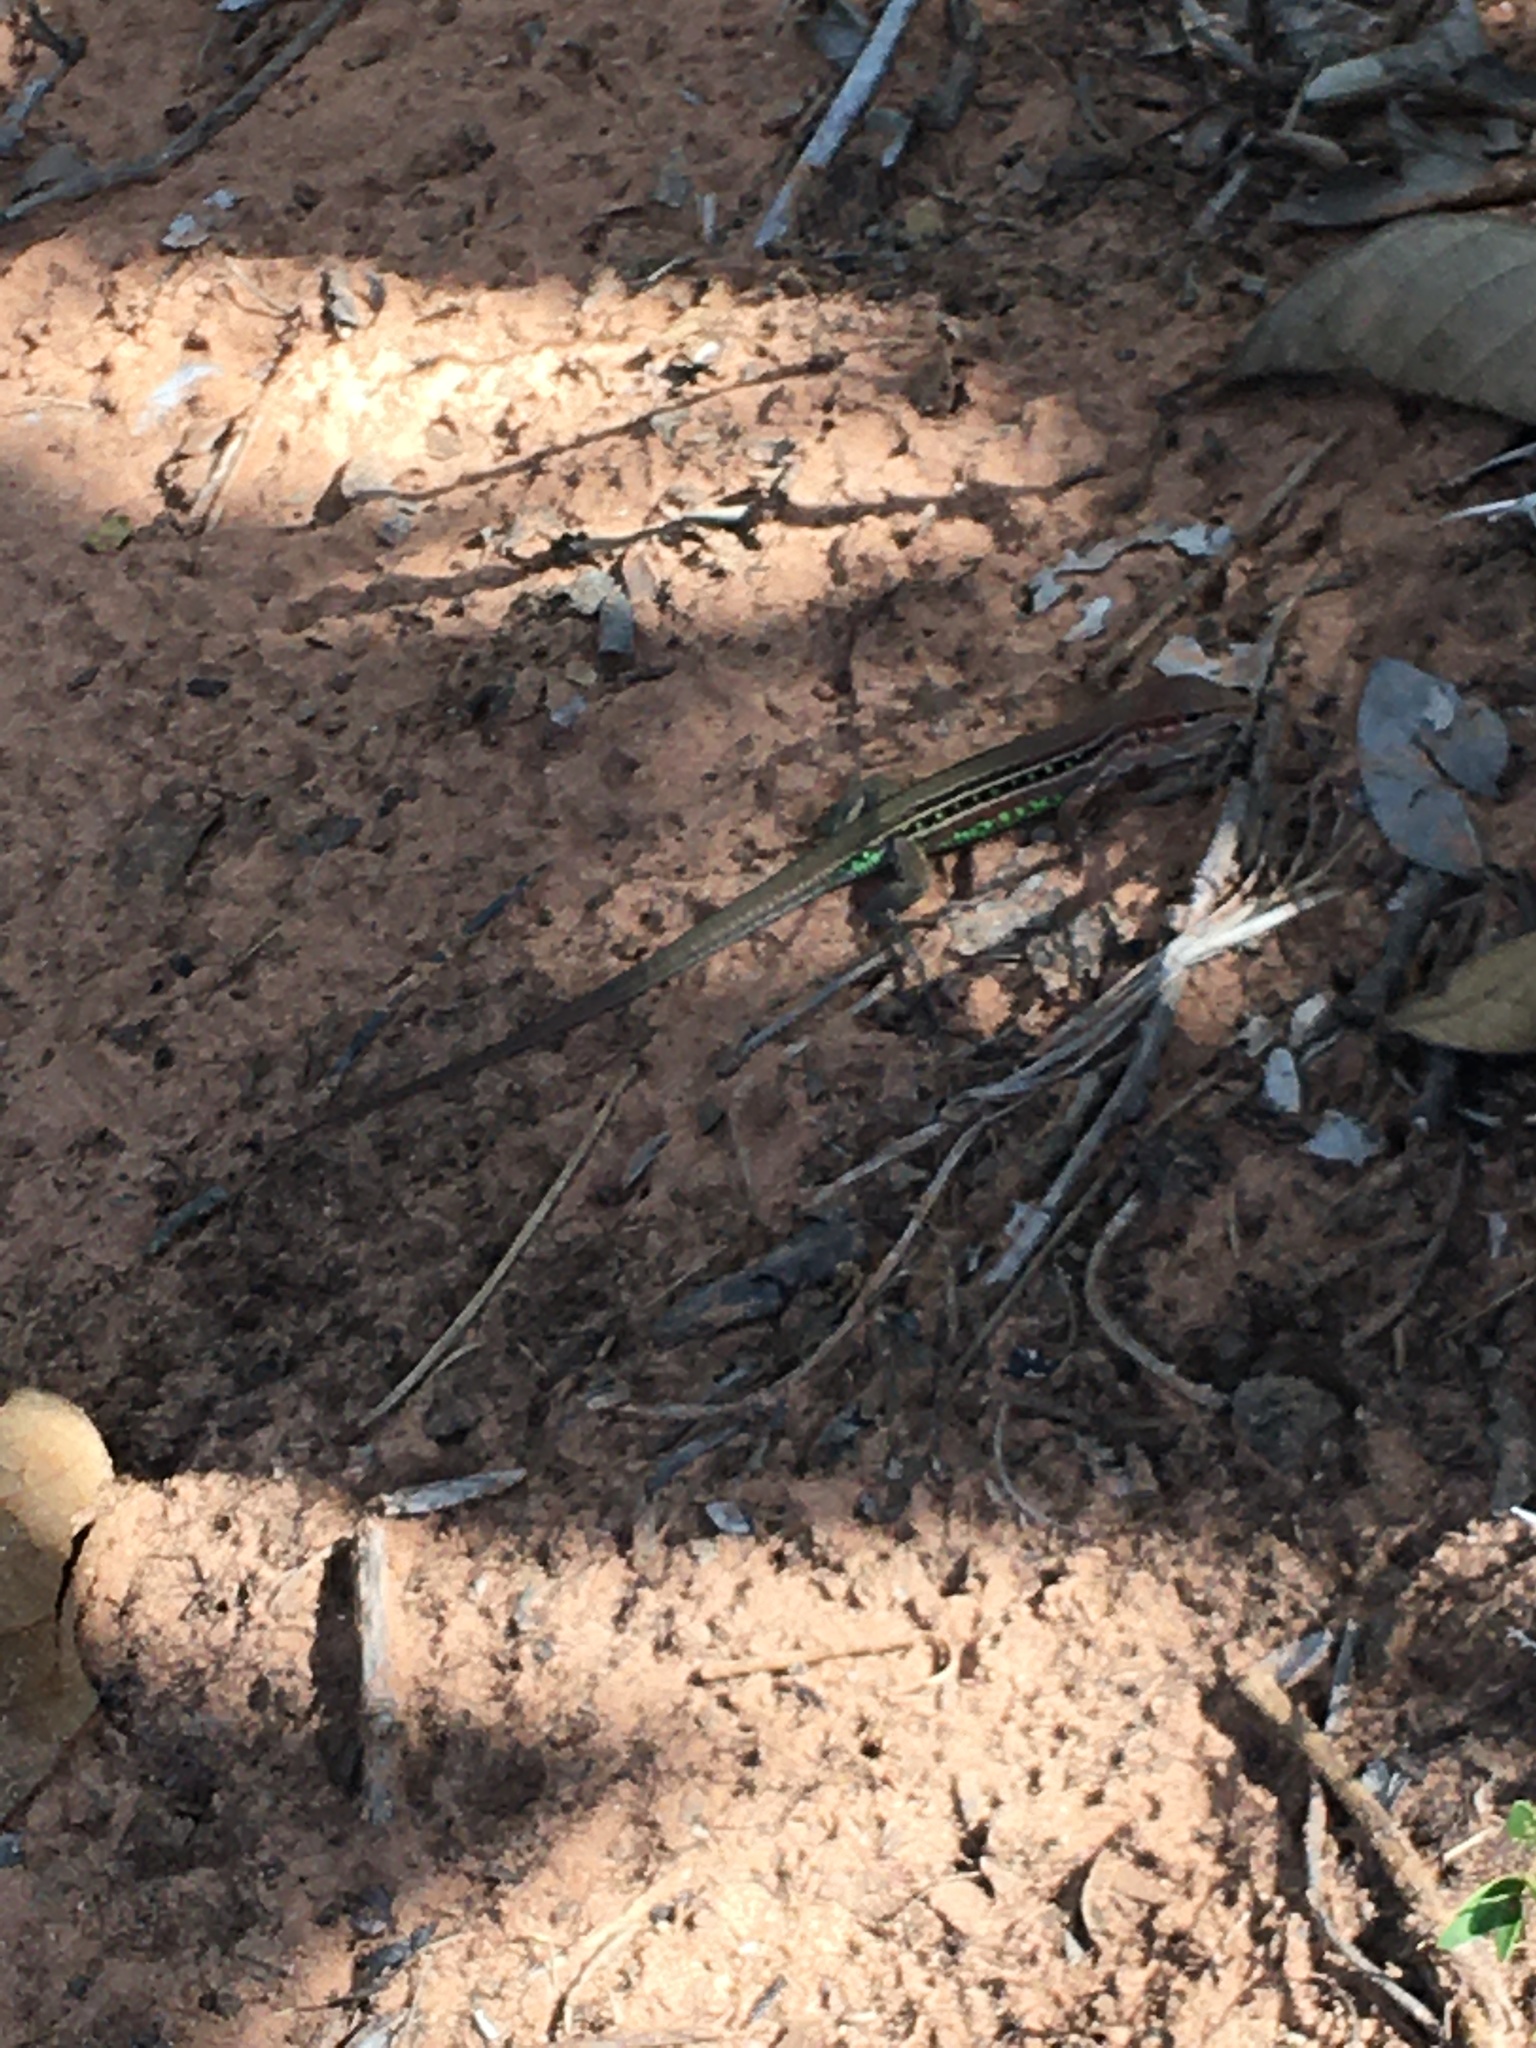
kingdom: Animalia
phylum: Chordata
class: Squamata
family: Teiidae
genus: Ameivula
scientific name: Ameivula ocellifera
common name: Spix's whiptail
